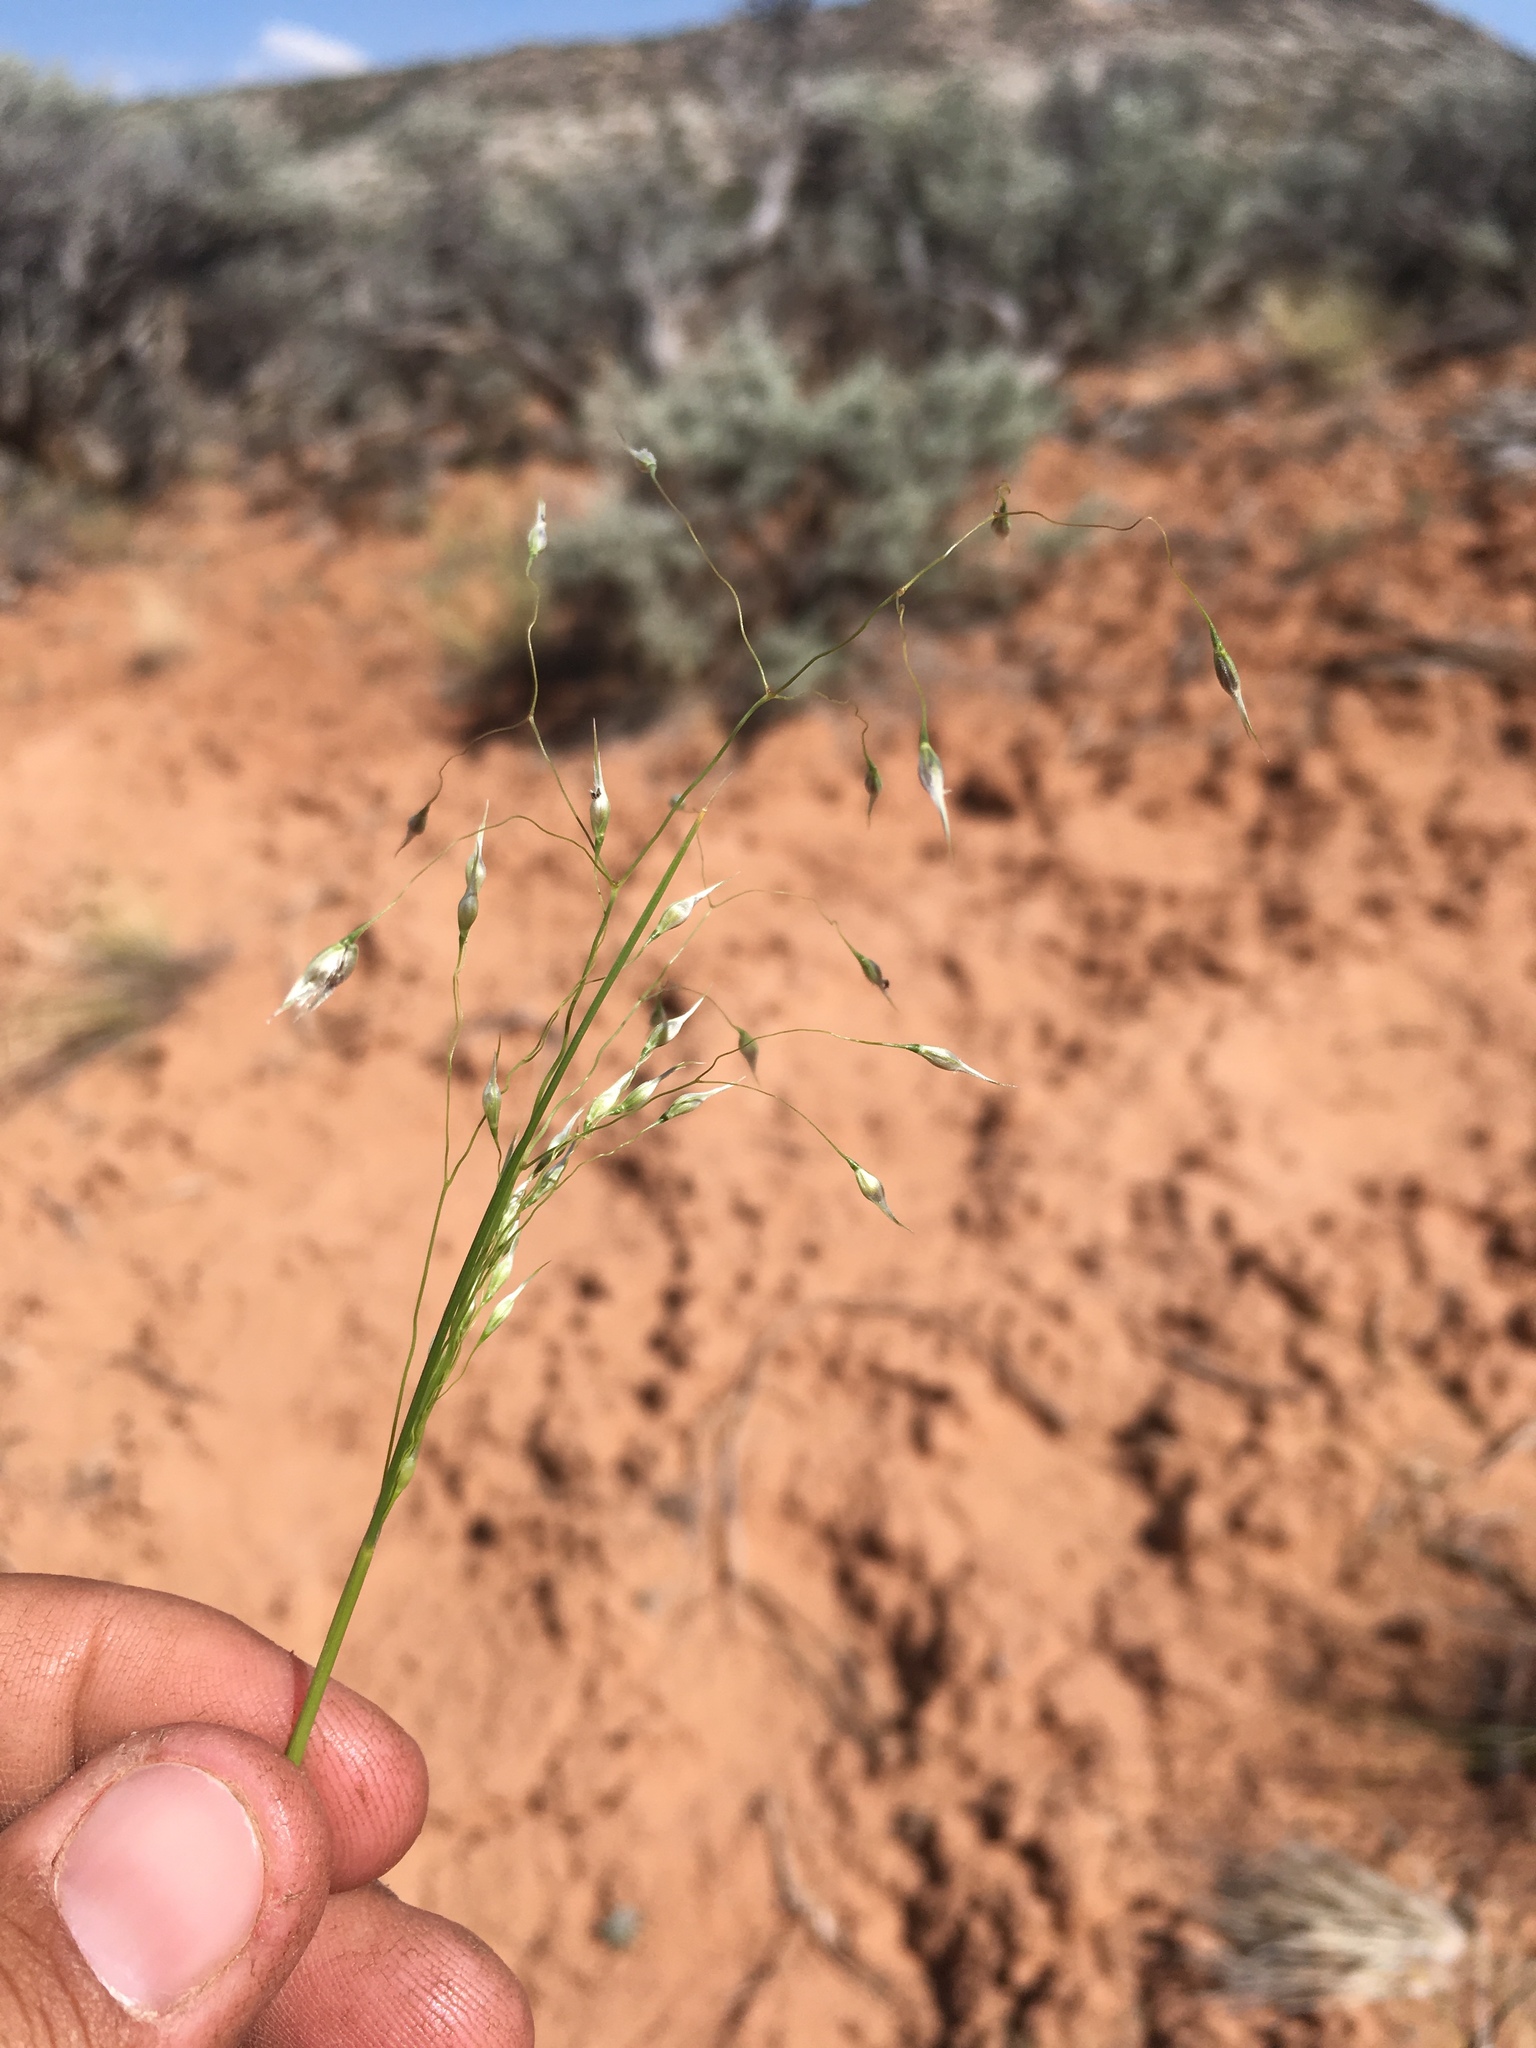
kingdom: Plantae
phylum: Tracheophyta
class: Liliopsida
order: Poales
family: Poaceae
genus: Eriocoma
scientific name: Eriocoma hymenoides
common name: Indian mountain ricegrass
